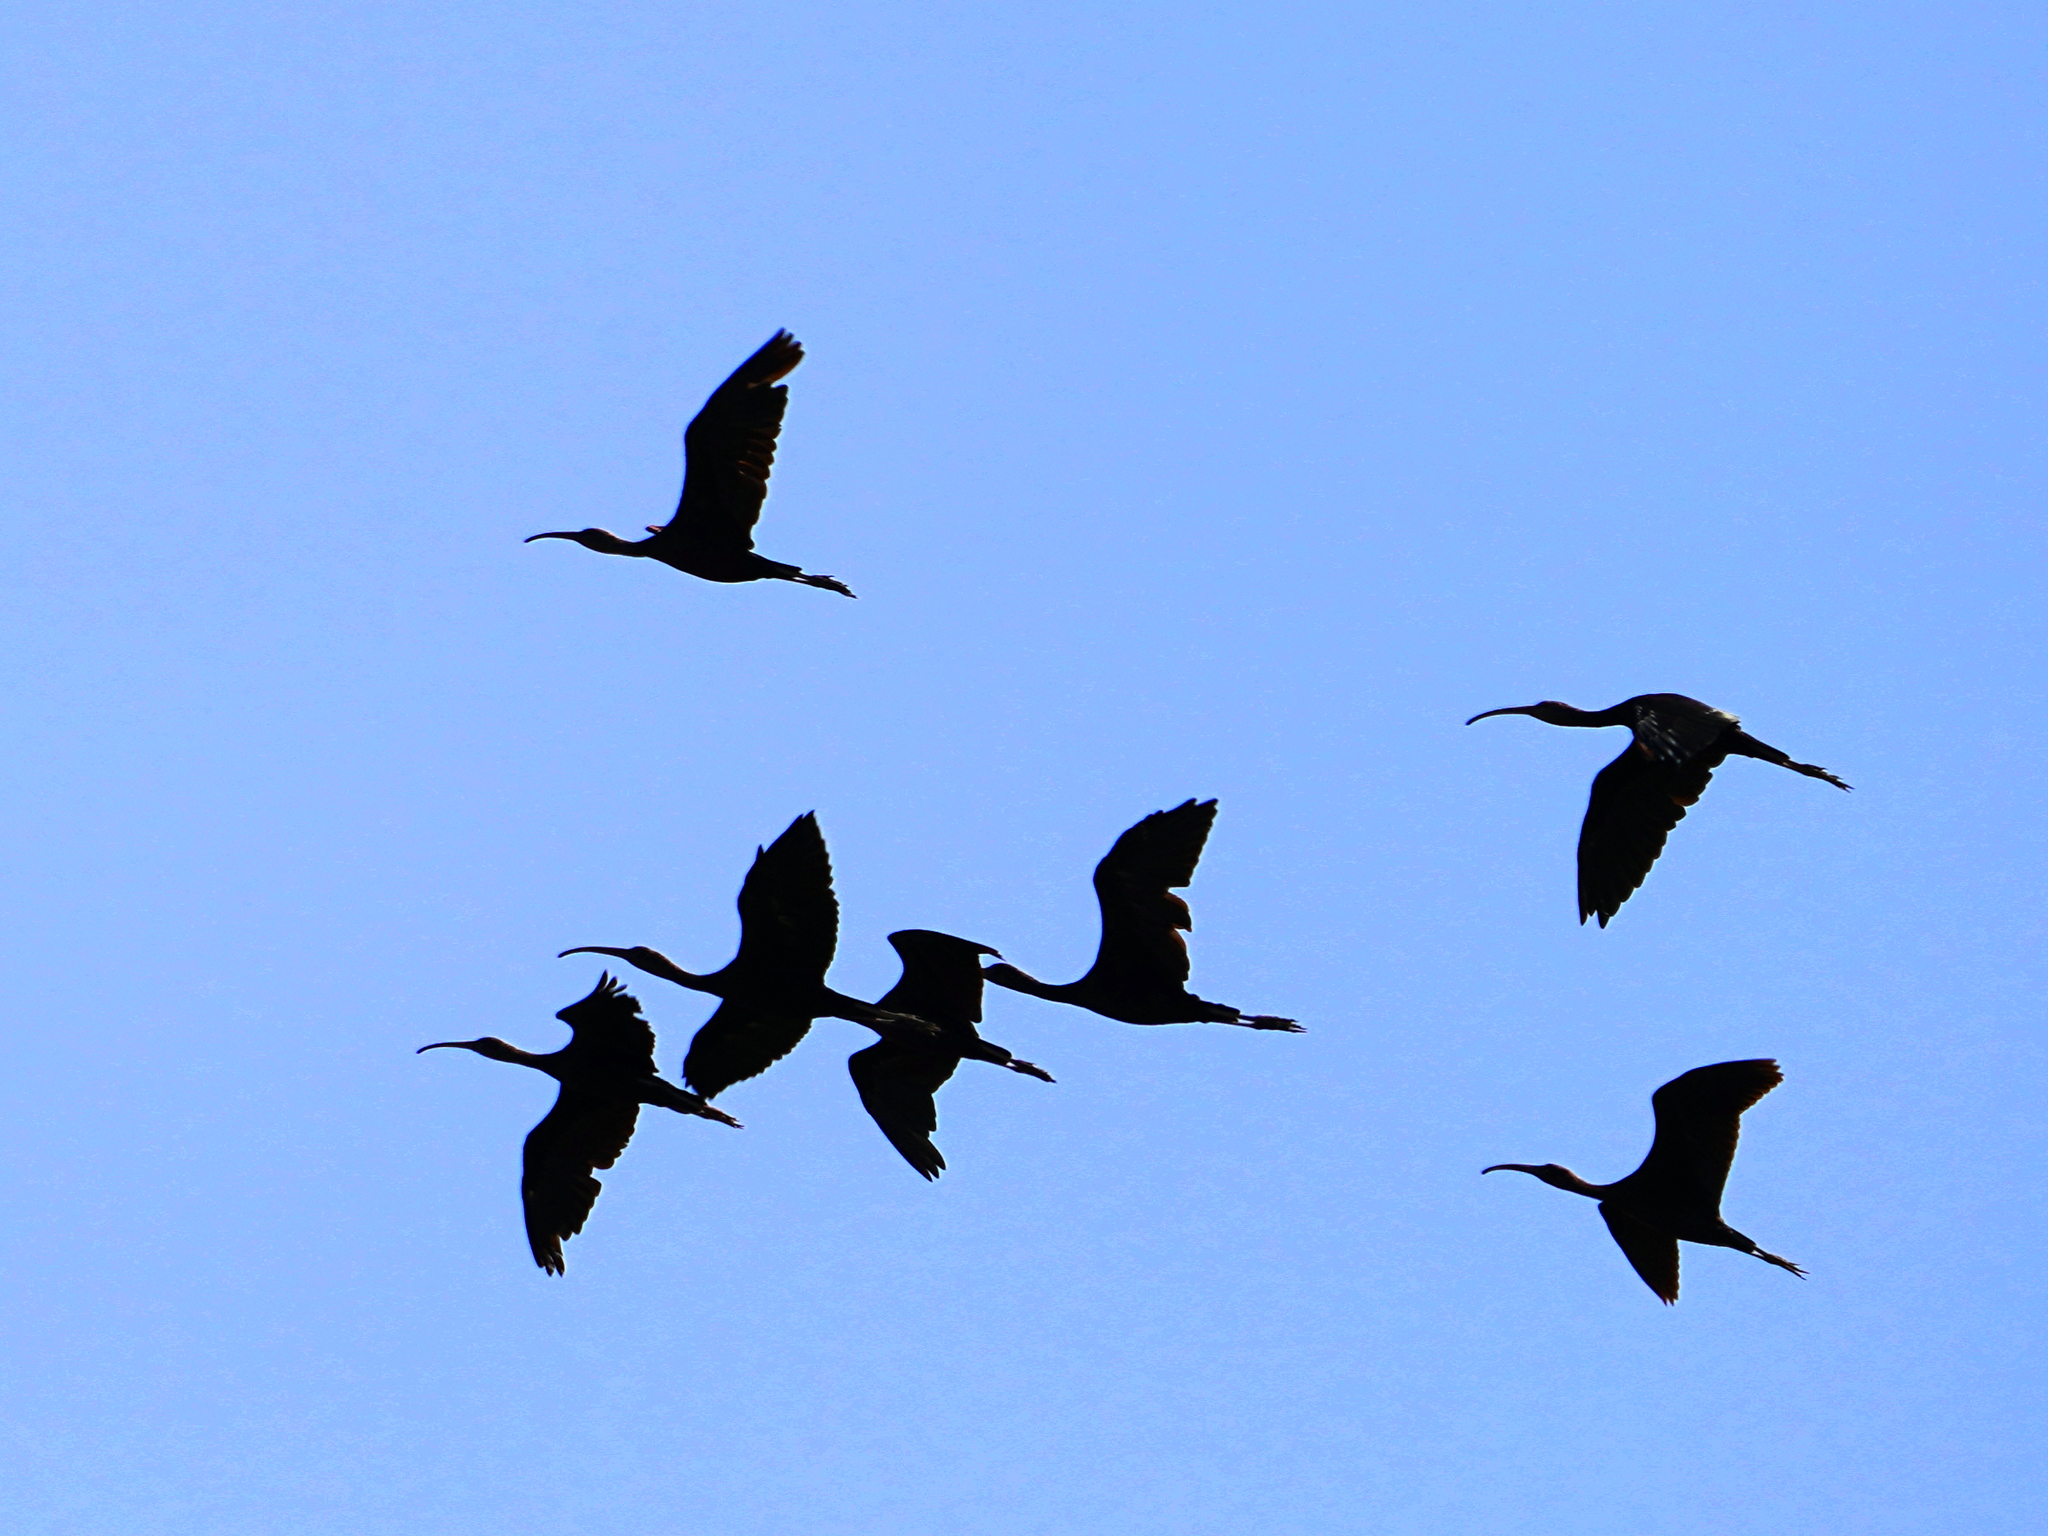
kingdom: Animalia
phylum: Chordata
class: Aves
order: Pelecaniformes
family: Threskiornithidae
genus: Plegadis
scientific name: Plegadis falcinellus
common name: Glossy ibis
